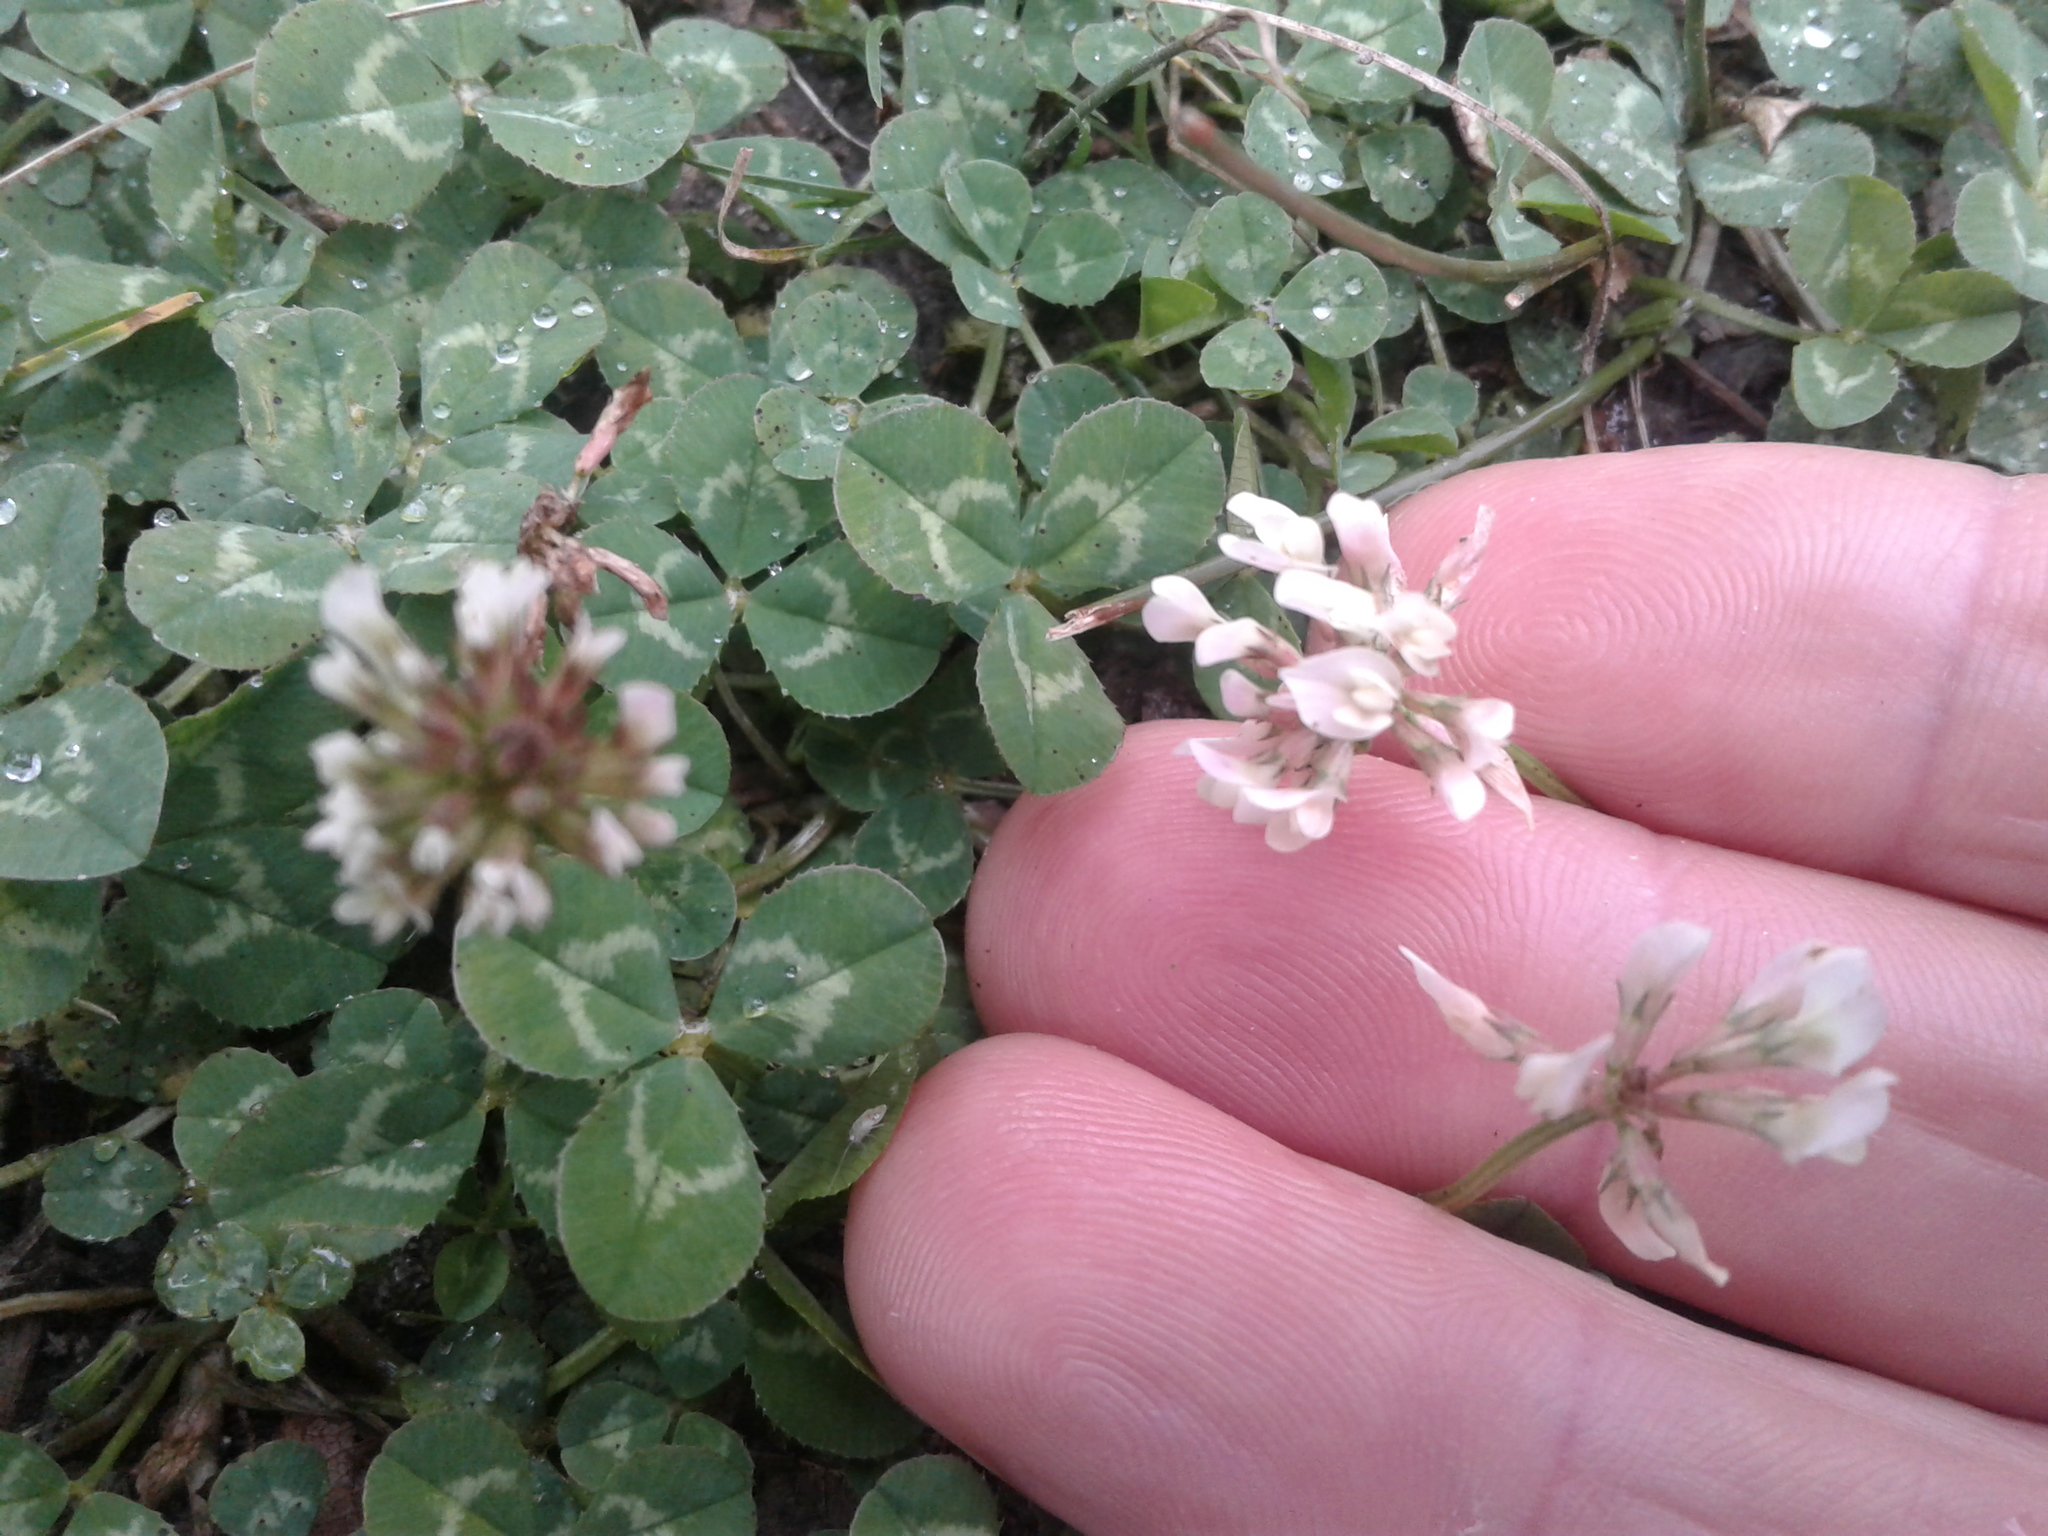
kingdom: Plantae
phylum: Tracheophyta
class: Magnoliopsida
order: Fabales
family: Fabaceae
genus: Trifolium
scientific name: Trifolium repens
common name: White clover
